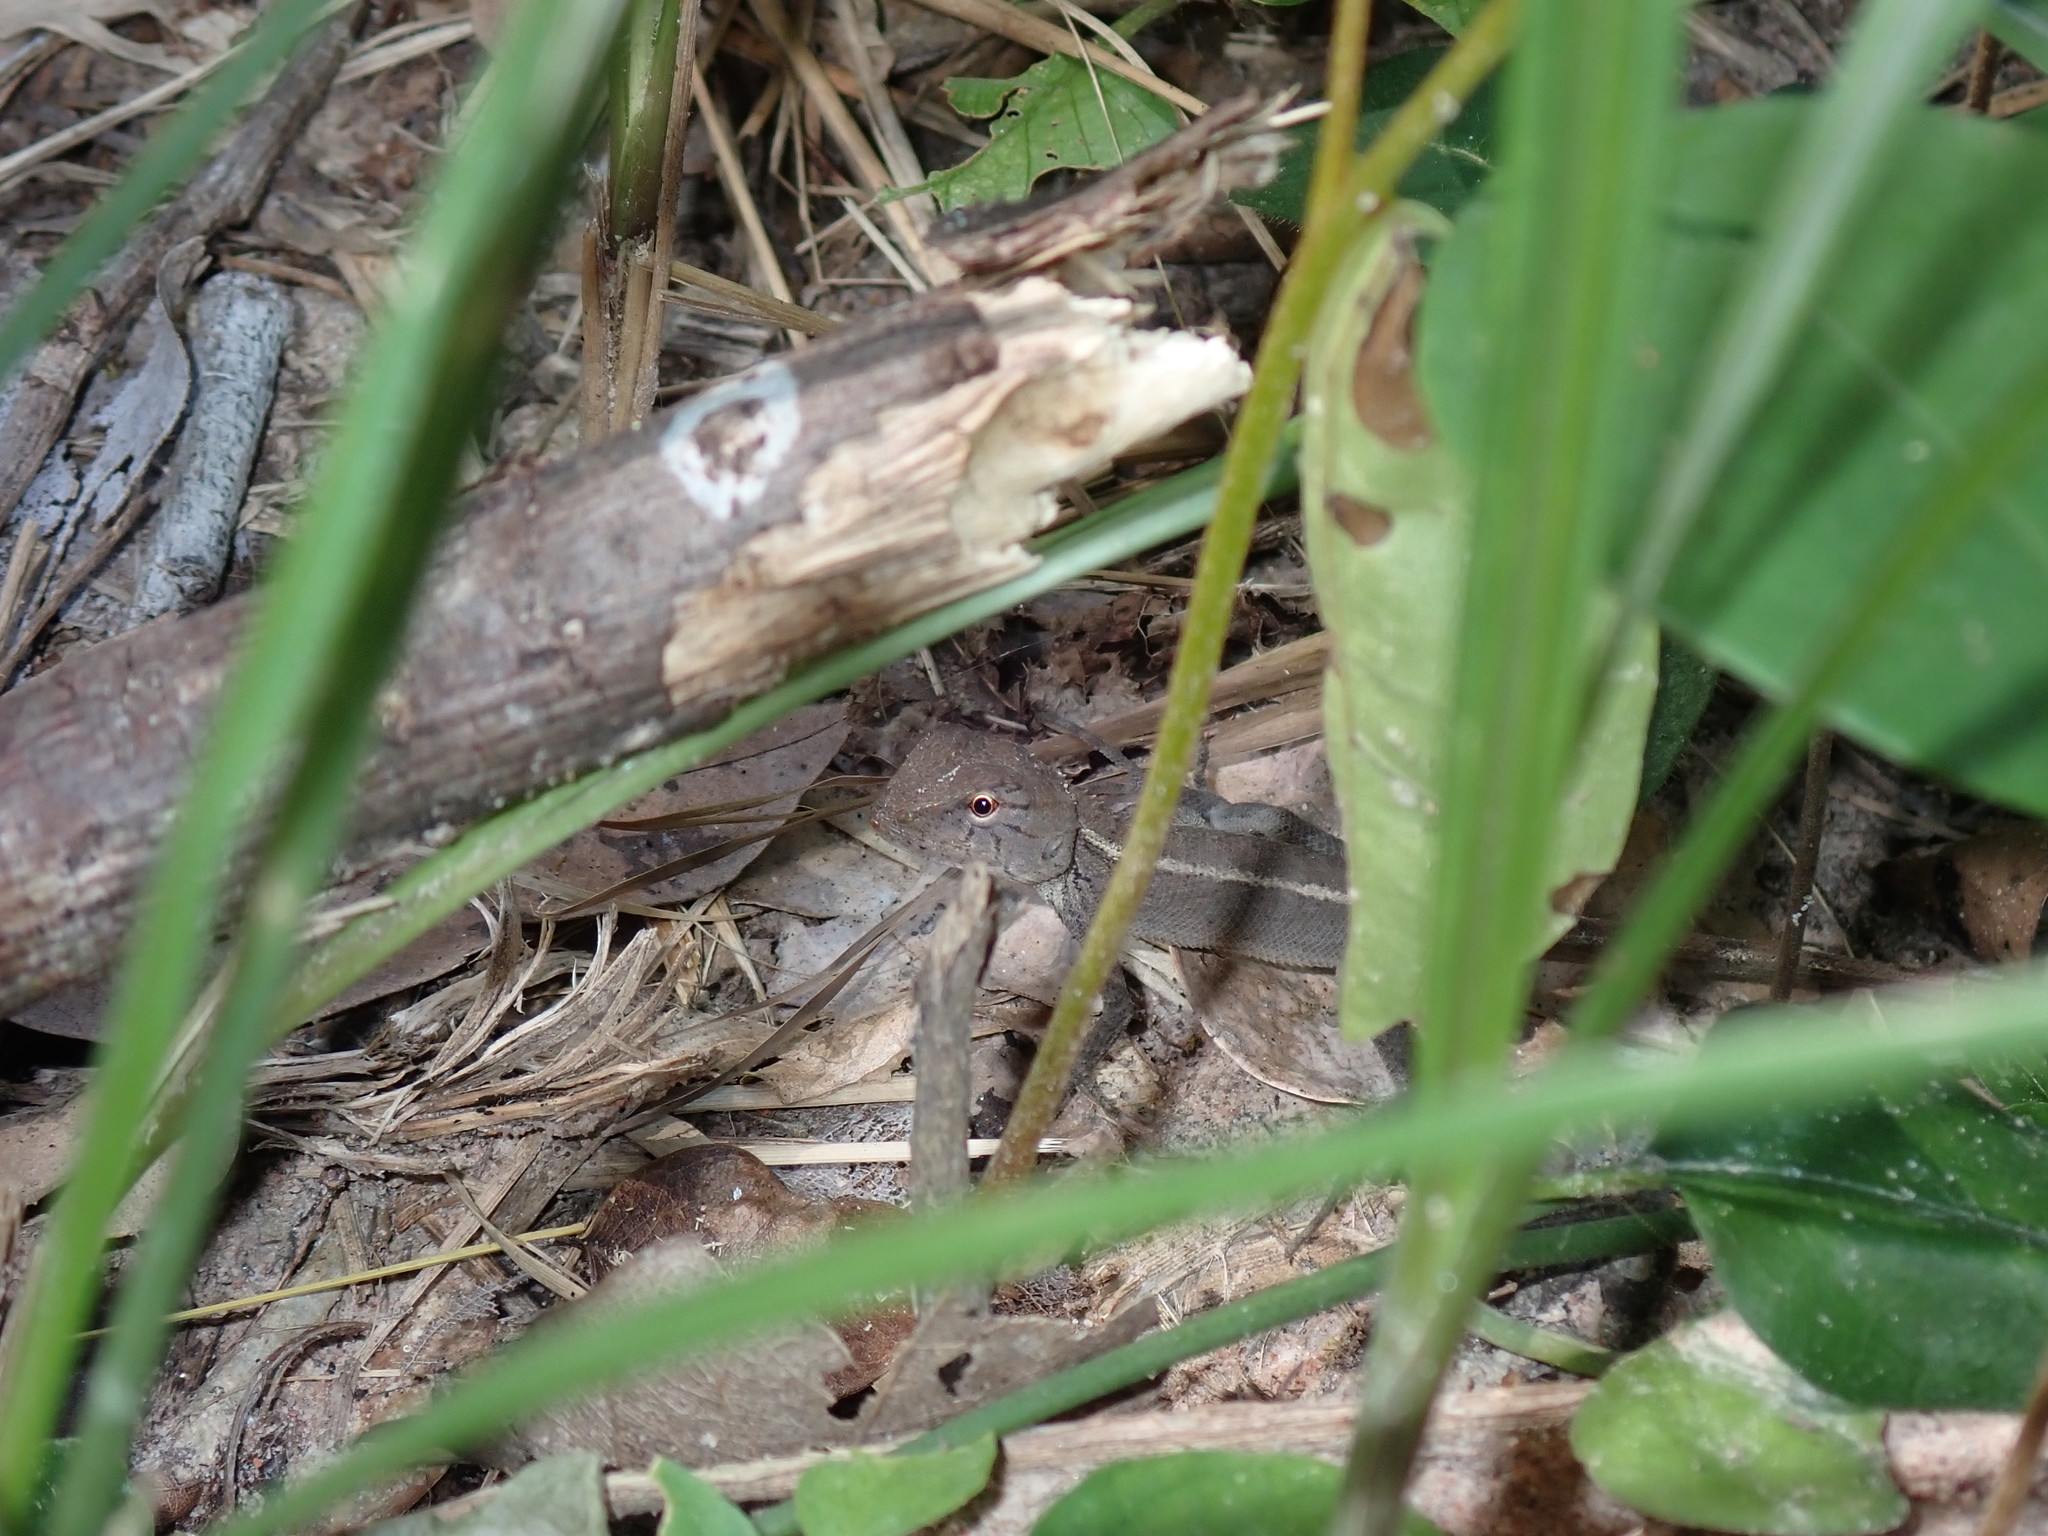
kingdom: Animalia
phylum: Chordata
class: Squamata
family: Agamidae
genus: Calotes
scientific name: Calotes versicolor
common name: Oriental garden lizard
